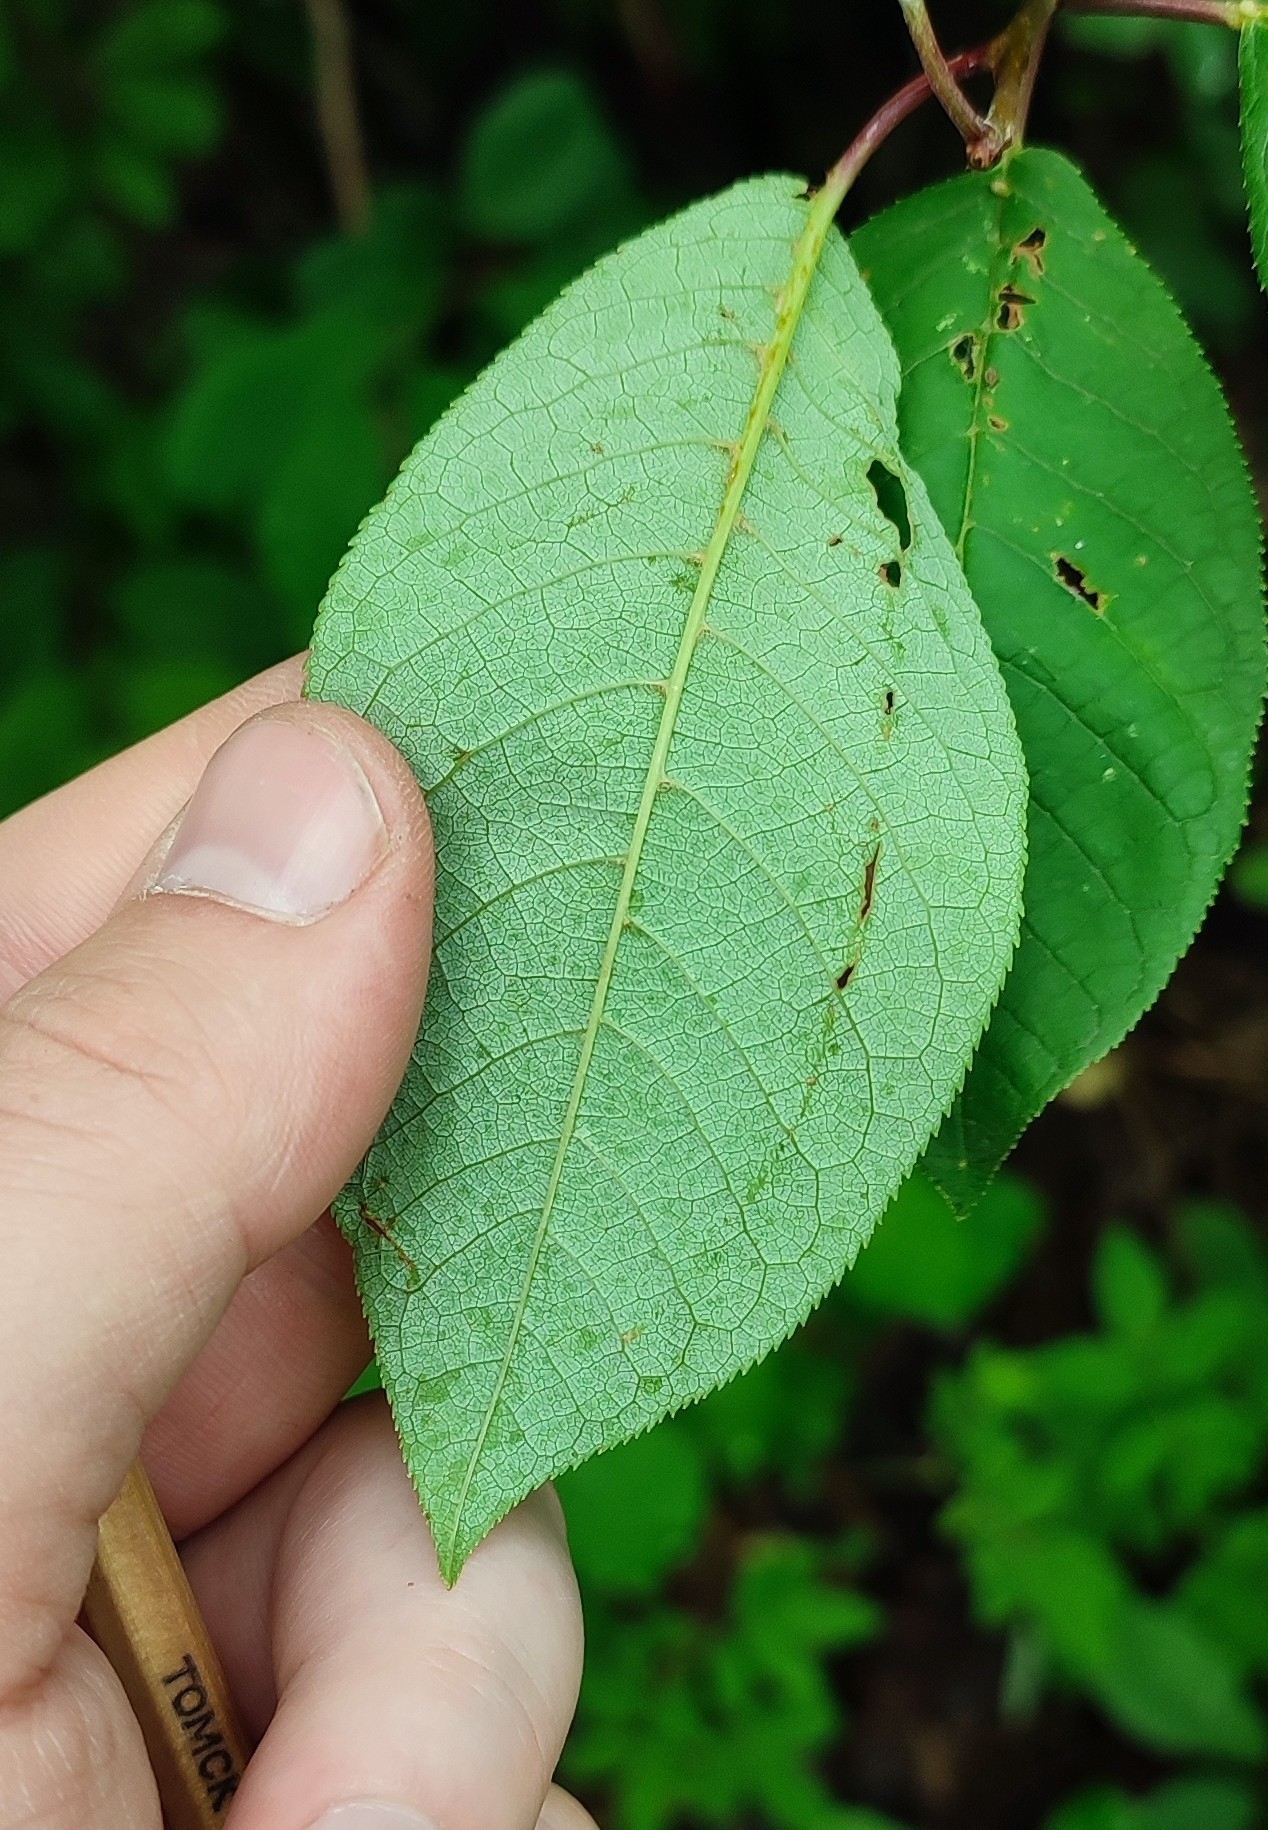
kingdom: Plantae
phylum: Tracheophyta
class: Magnoliopsida
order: Rosales
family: Rosaceae
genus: Prunus
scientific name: Prunus padus
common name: Bird cherry
